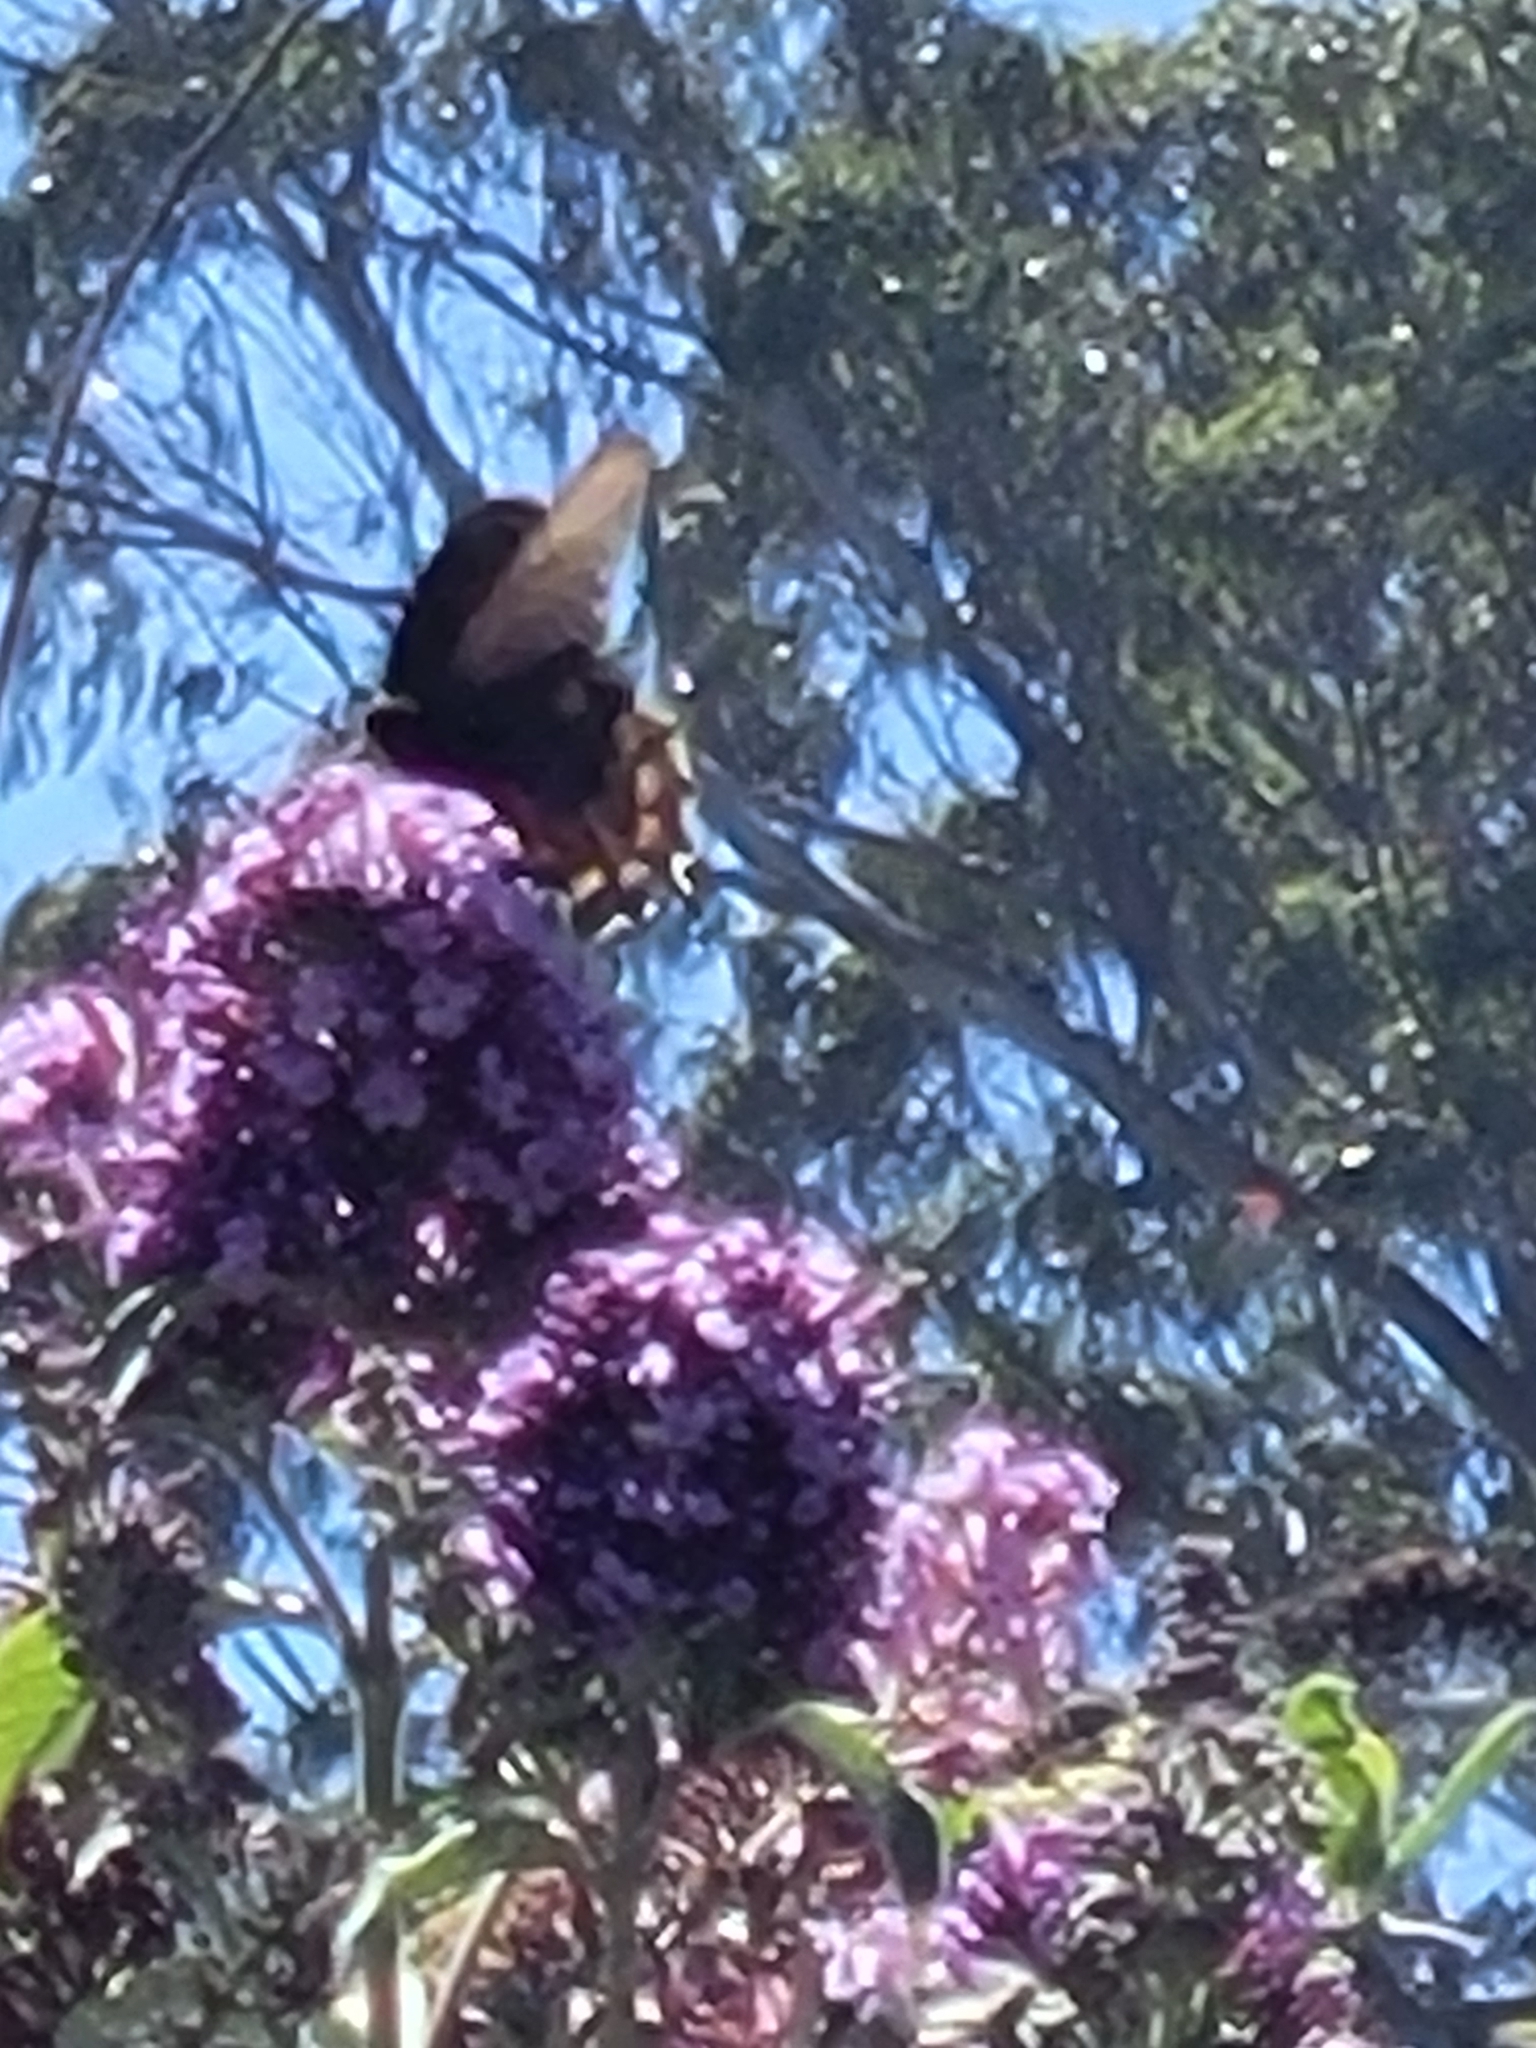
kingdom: Animalia
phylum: Arthropoda
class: Insecta
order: Lepidoptera
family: Papilionidae
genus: Battus
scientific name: Battus philenor
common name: Pipevine swallowtail
